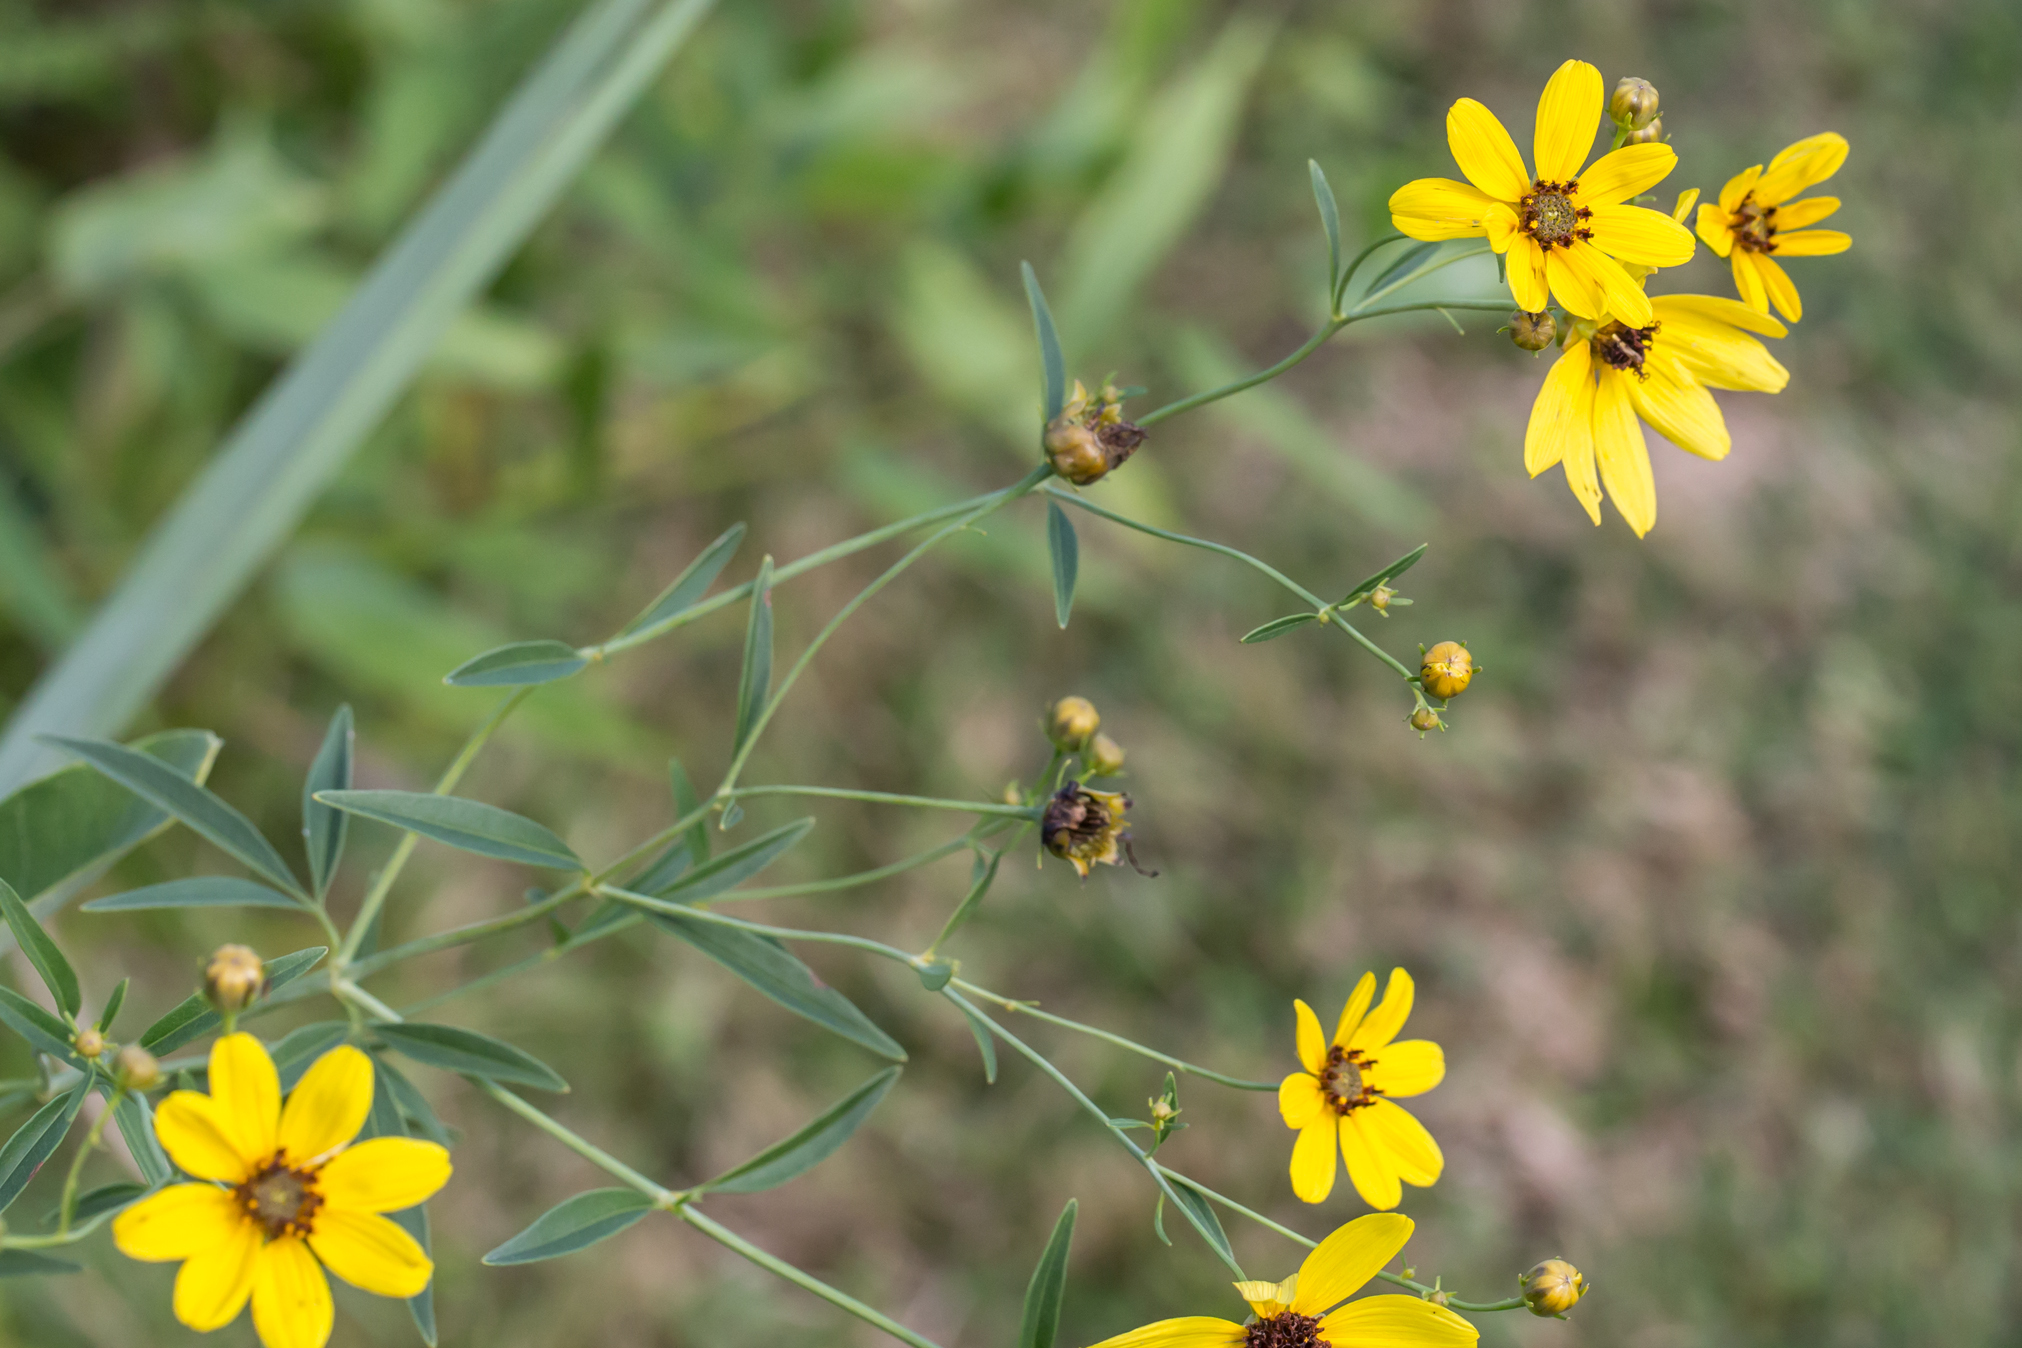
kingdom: Plantae
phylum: Tracheophyta
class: Magnoliopsida
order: Asterales
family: Asteraceae
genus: Coreopsis
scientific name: Coreopsis tripteris
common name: Tall coreopsis
